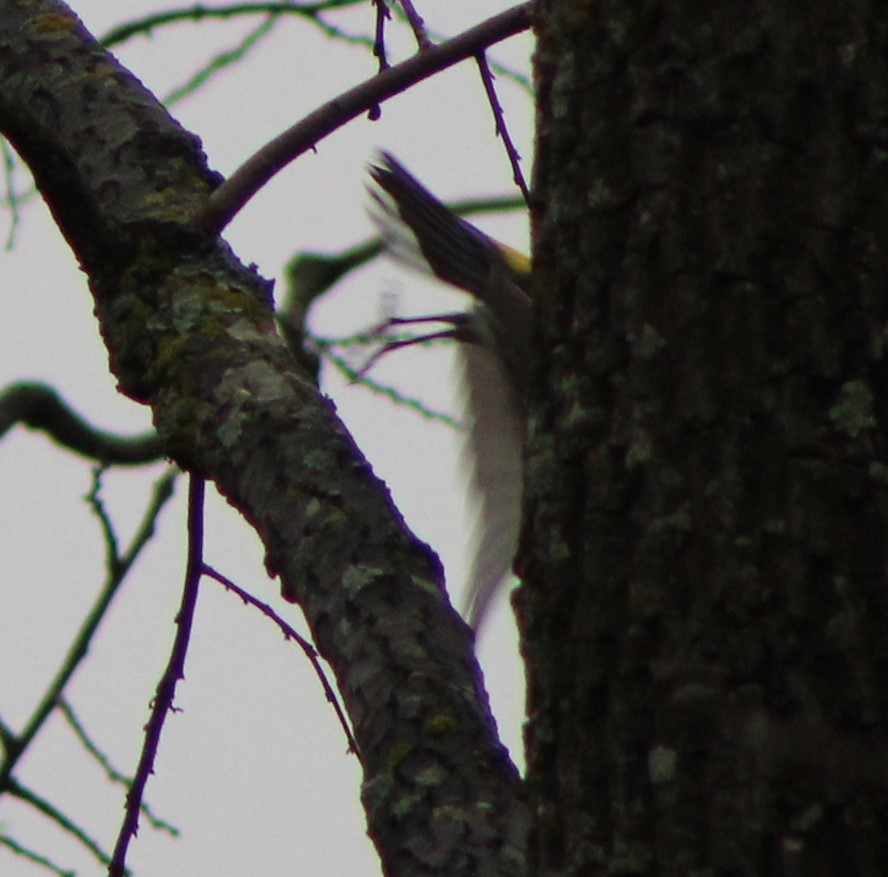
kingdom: Animalia
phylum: Chordata
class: Aves
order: Passeriformes
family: Parulidae
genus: Setophaga
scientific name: Setophaga coronata
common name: Myrtle warbler
